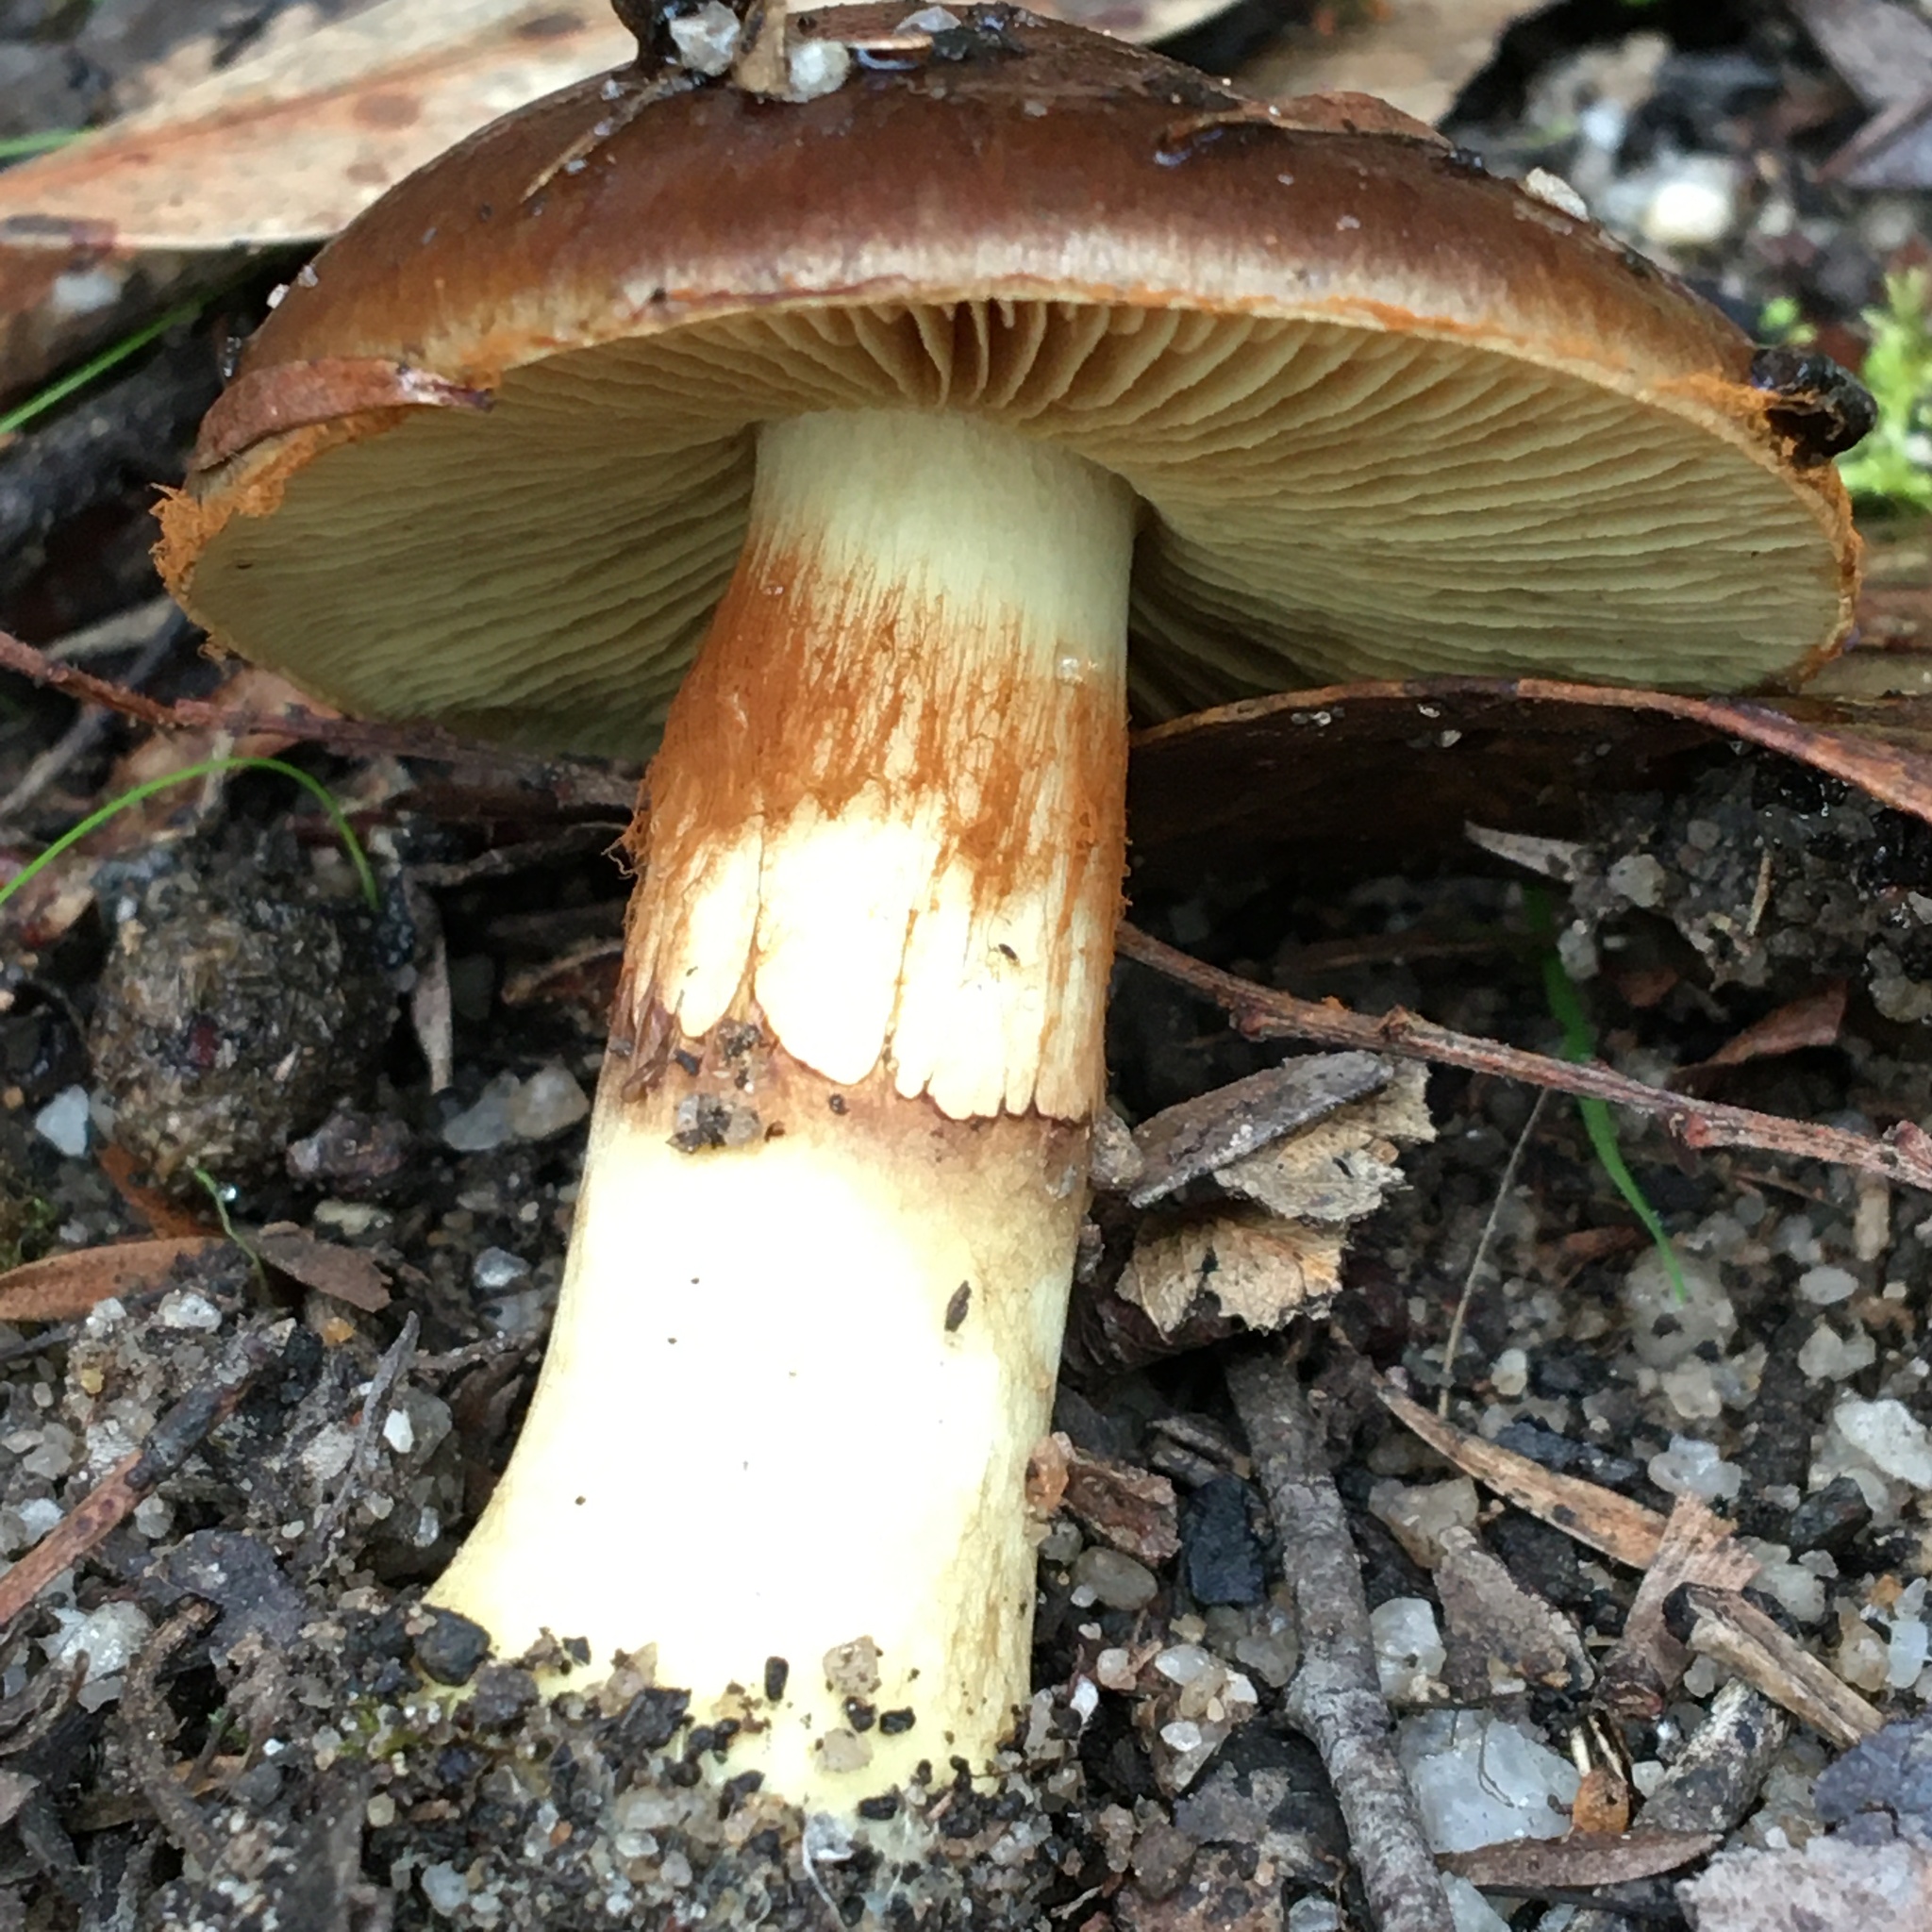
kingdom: Fungi
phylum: Basidiomycota
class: Agaricomycetes
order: Agaricales
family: Cortinariaceae
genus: Cortinarius
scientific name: Cortinarius clelandii
